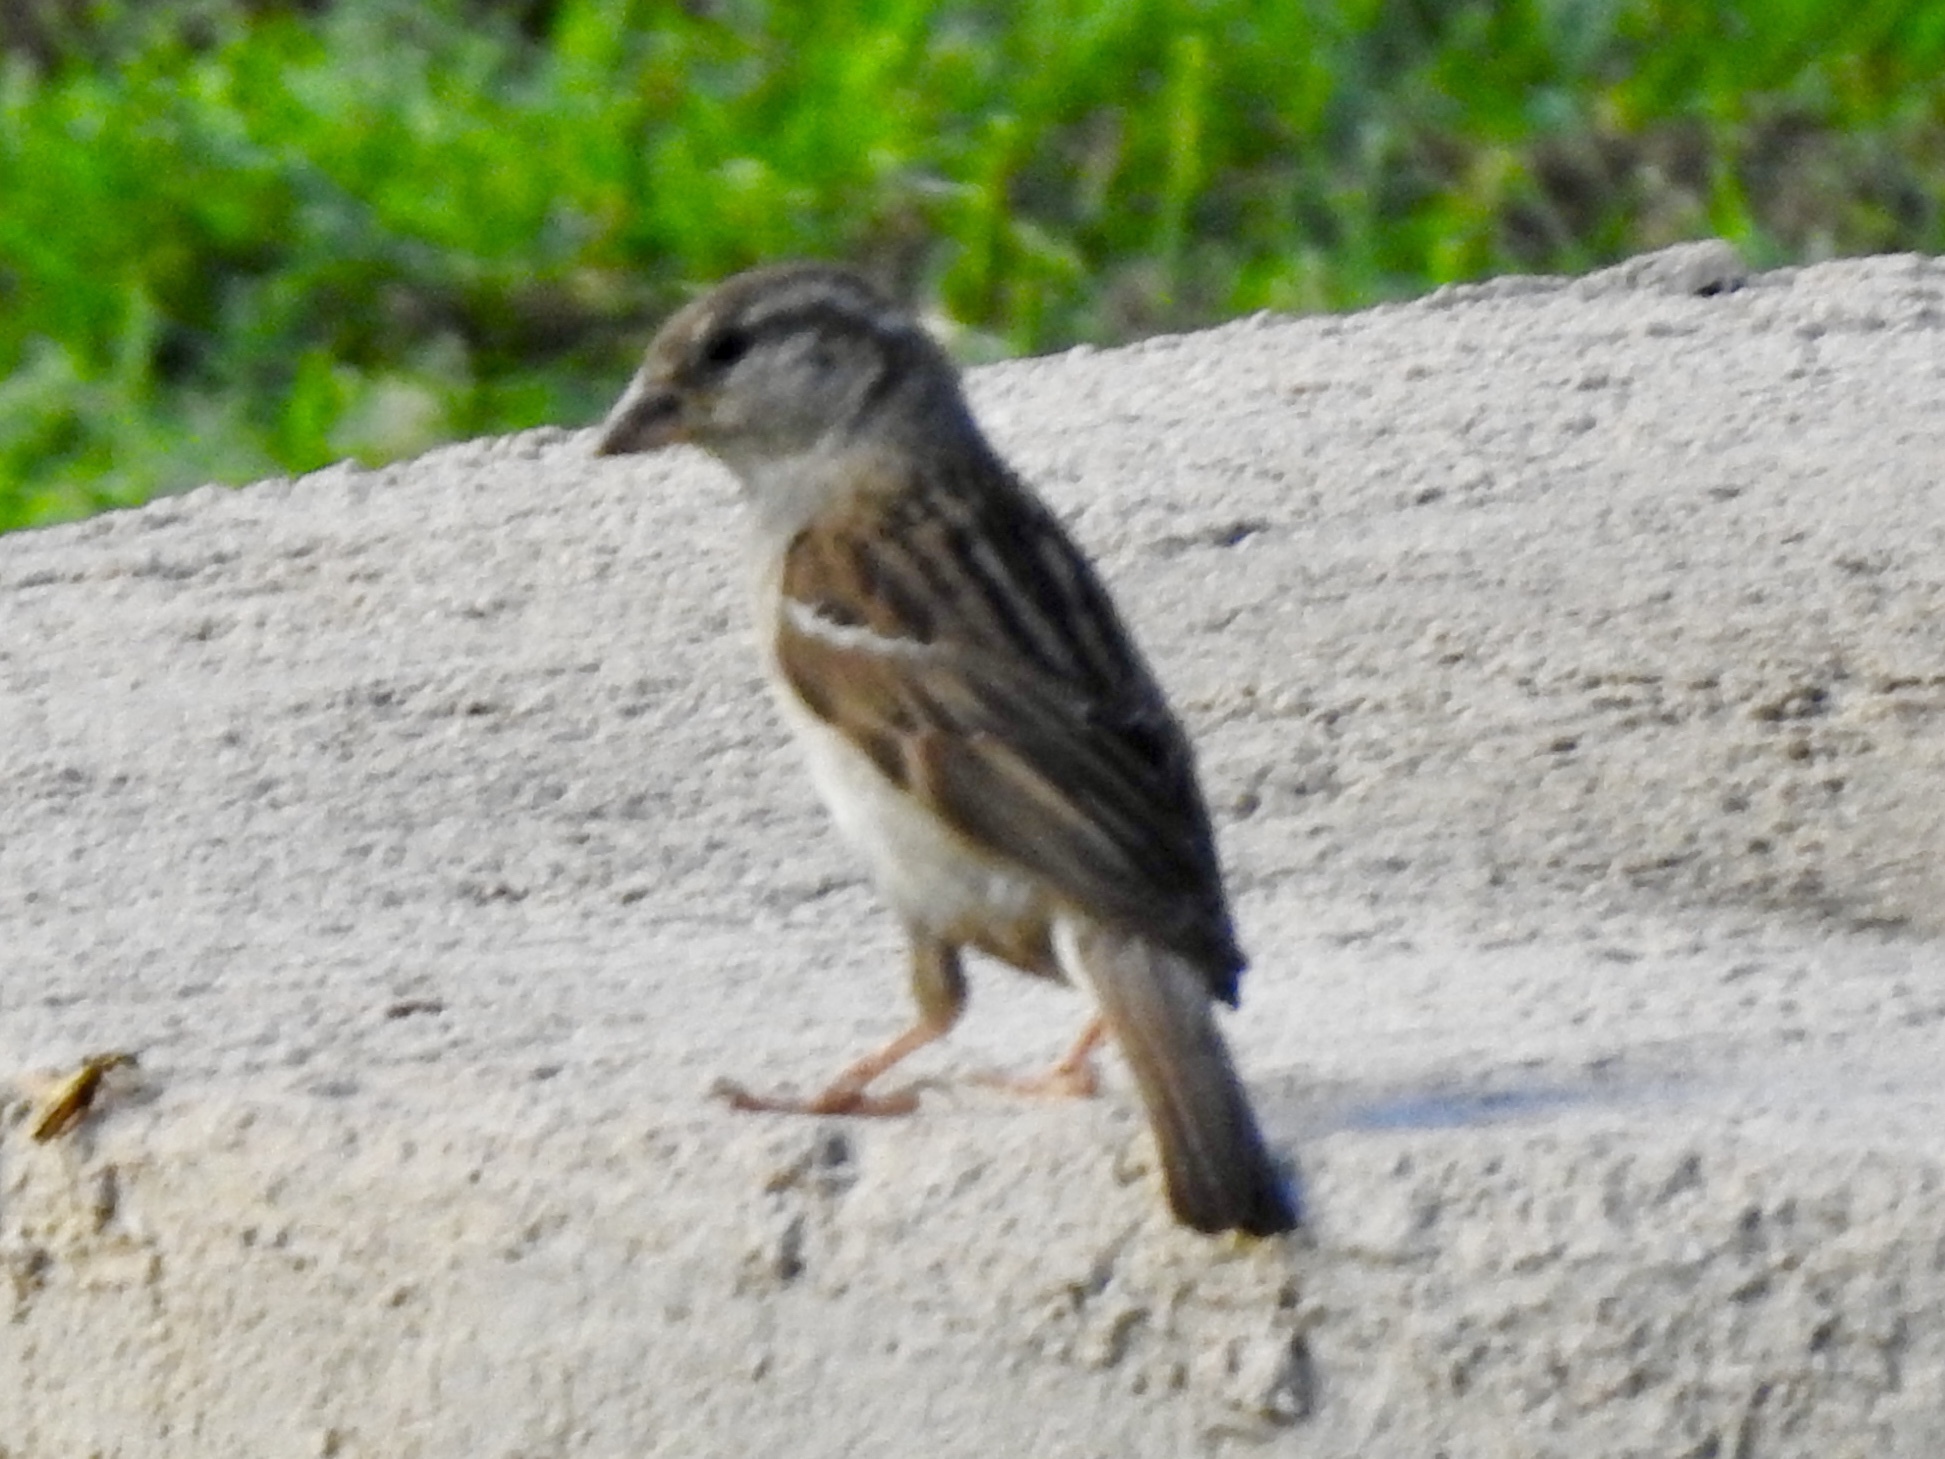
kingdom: Animalia
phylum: Chordata
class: Aves
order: Passeriformes
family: Passeridae
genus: Passer
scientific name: Passer domesticus
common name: House sparrow
